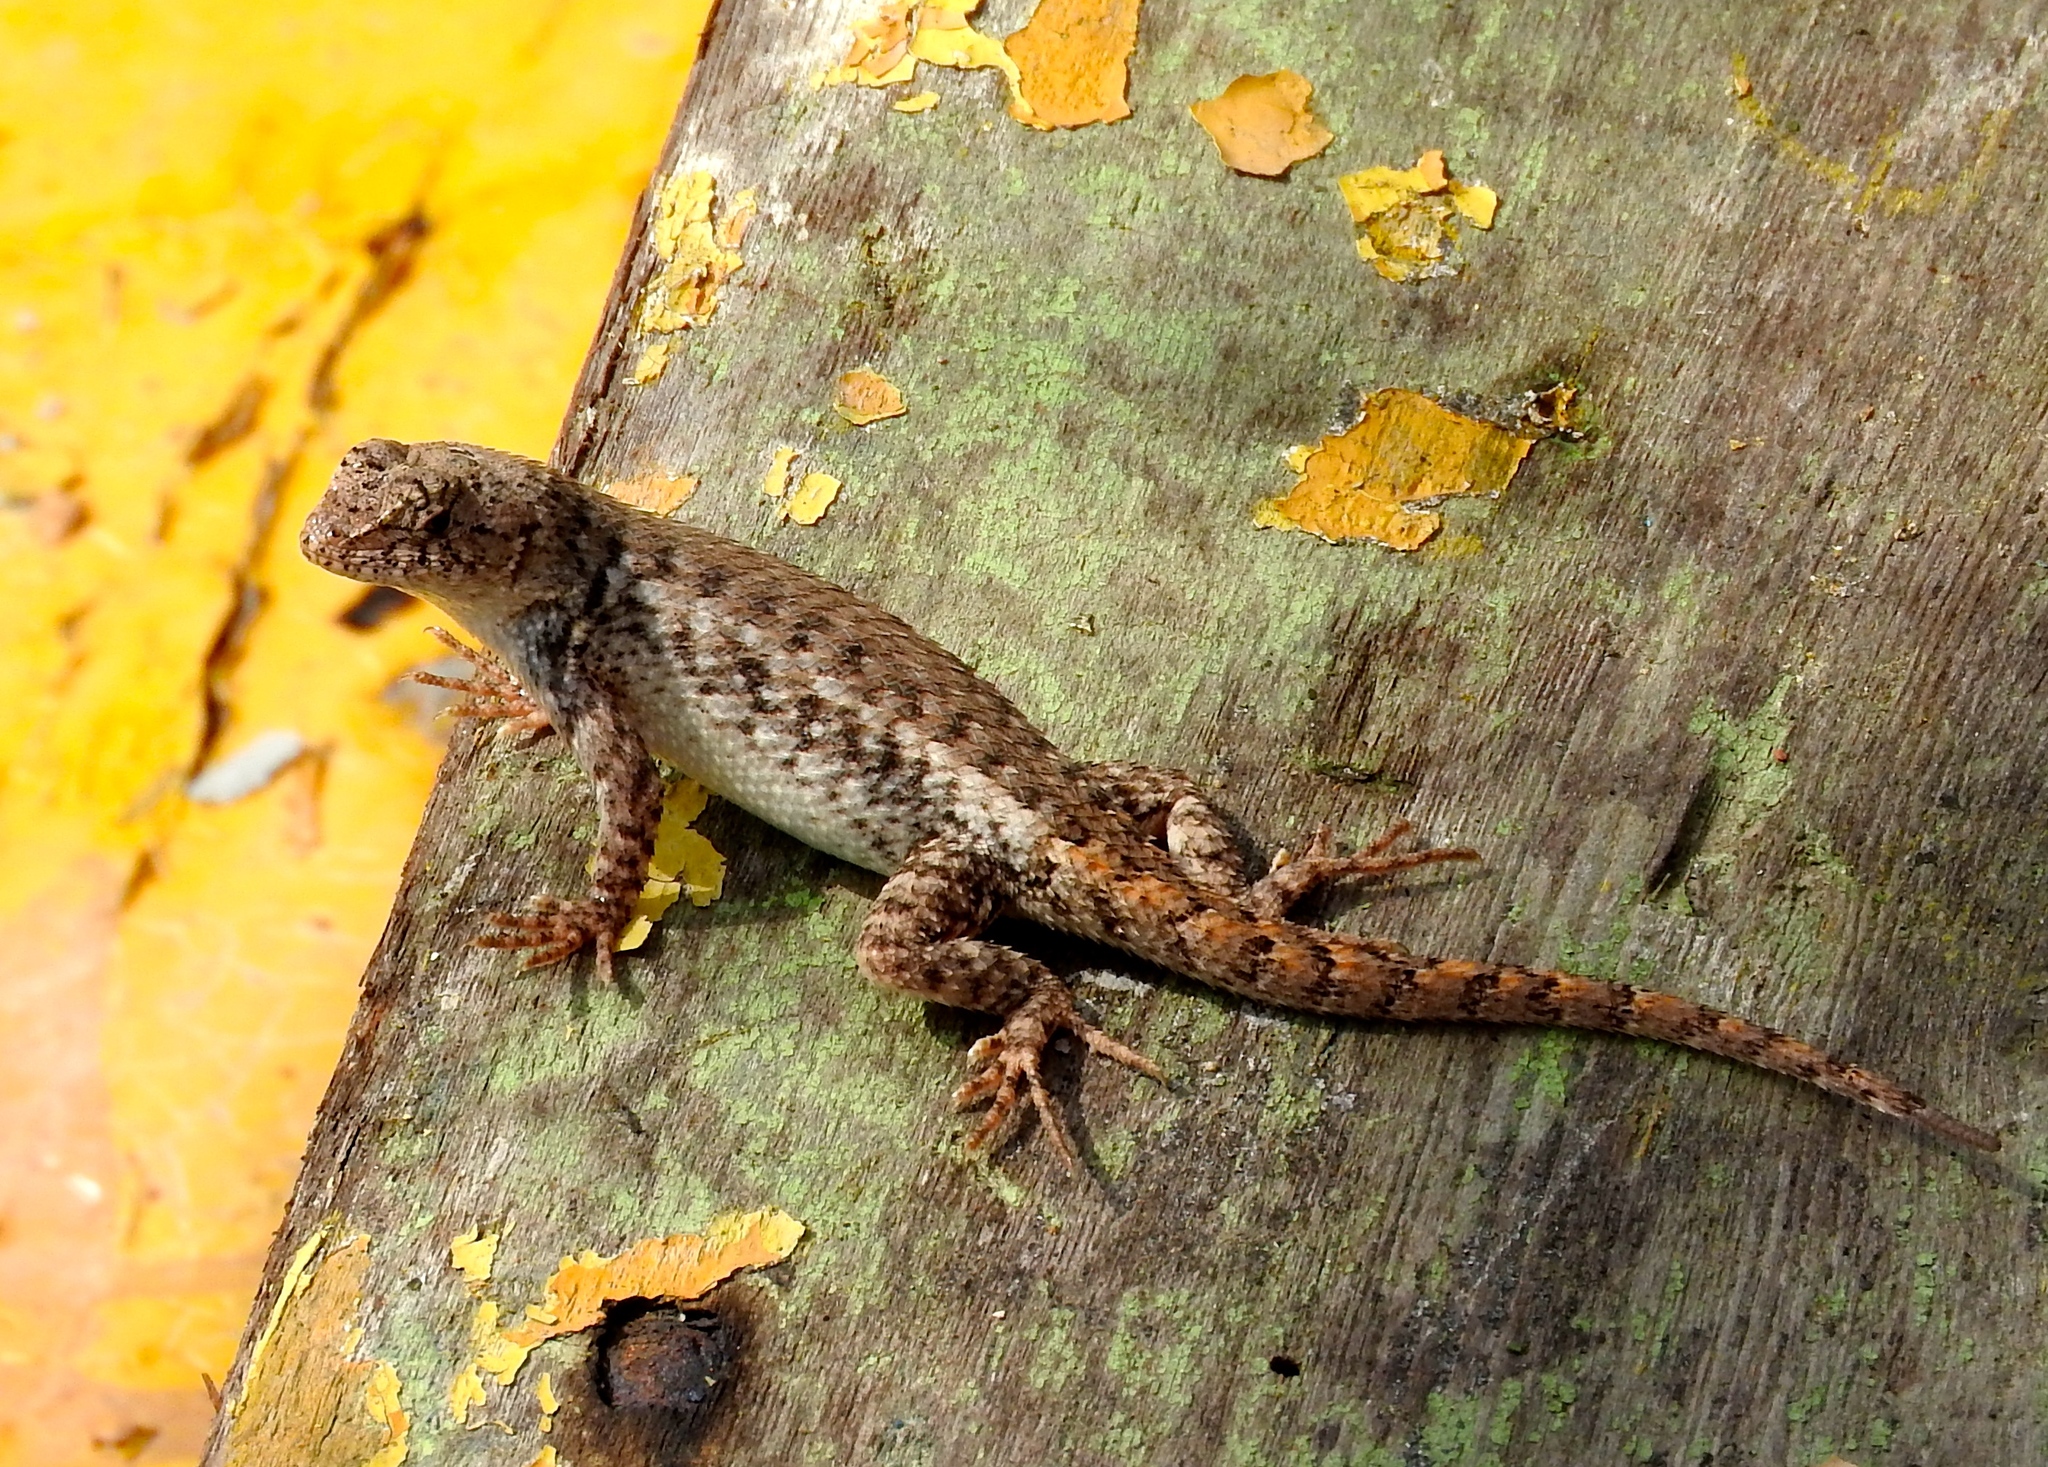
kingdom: Animalia
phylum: Chordata
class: Squamata
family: Phrynosomatidae
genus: Sceloporus
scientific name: Sceloporus nelsoni
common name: Nelson's spiny lizard
